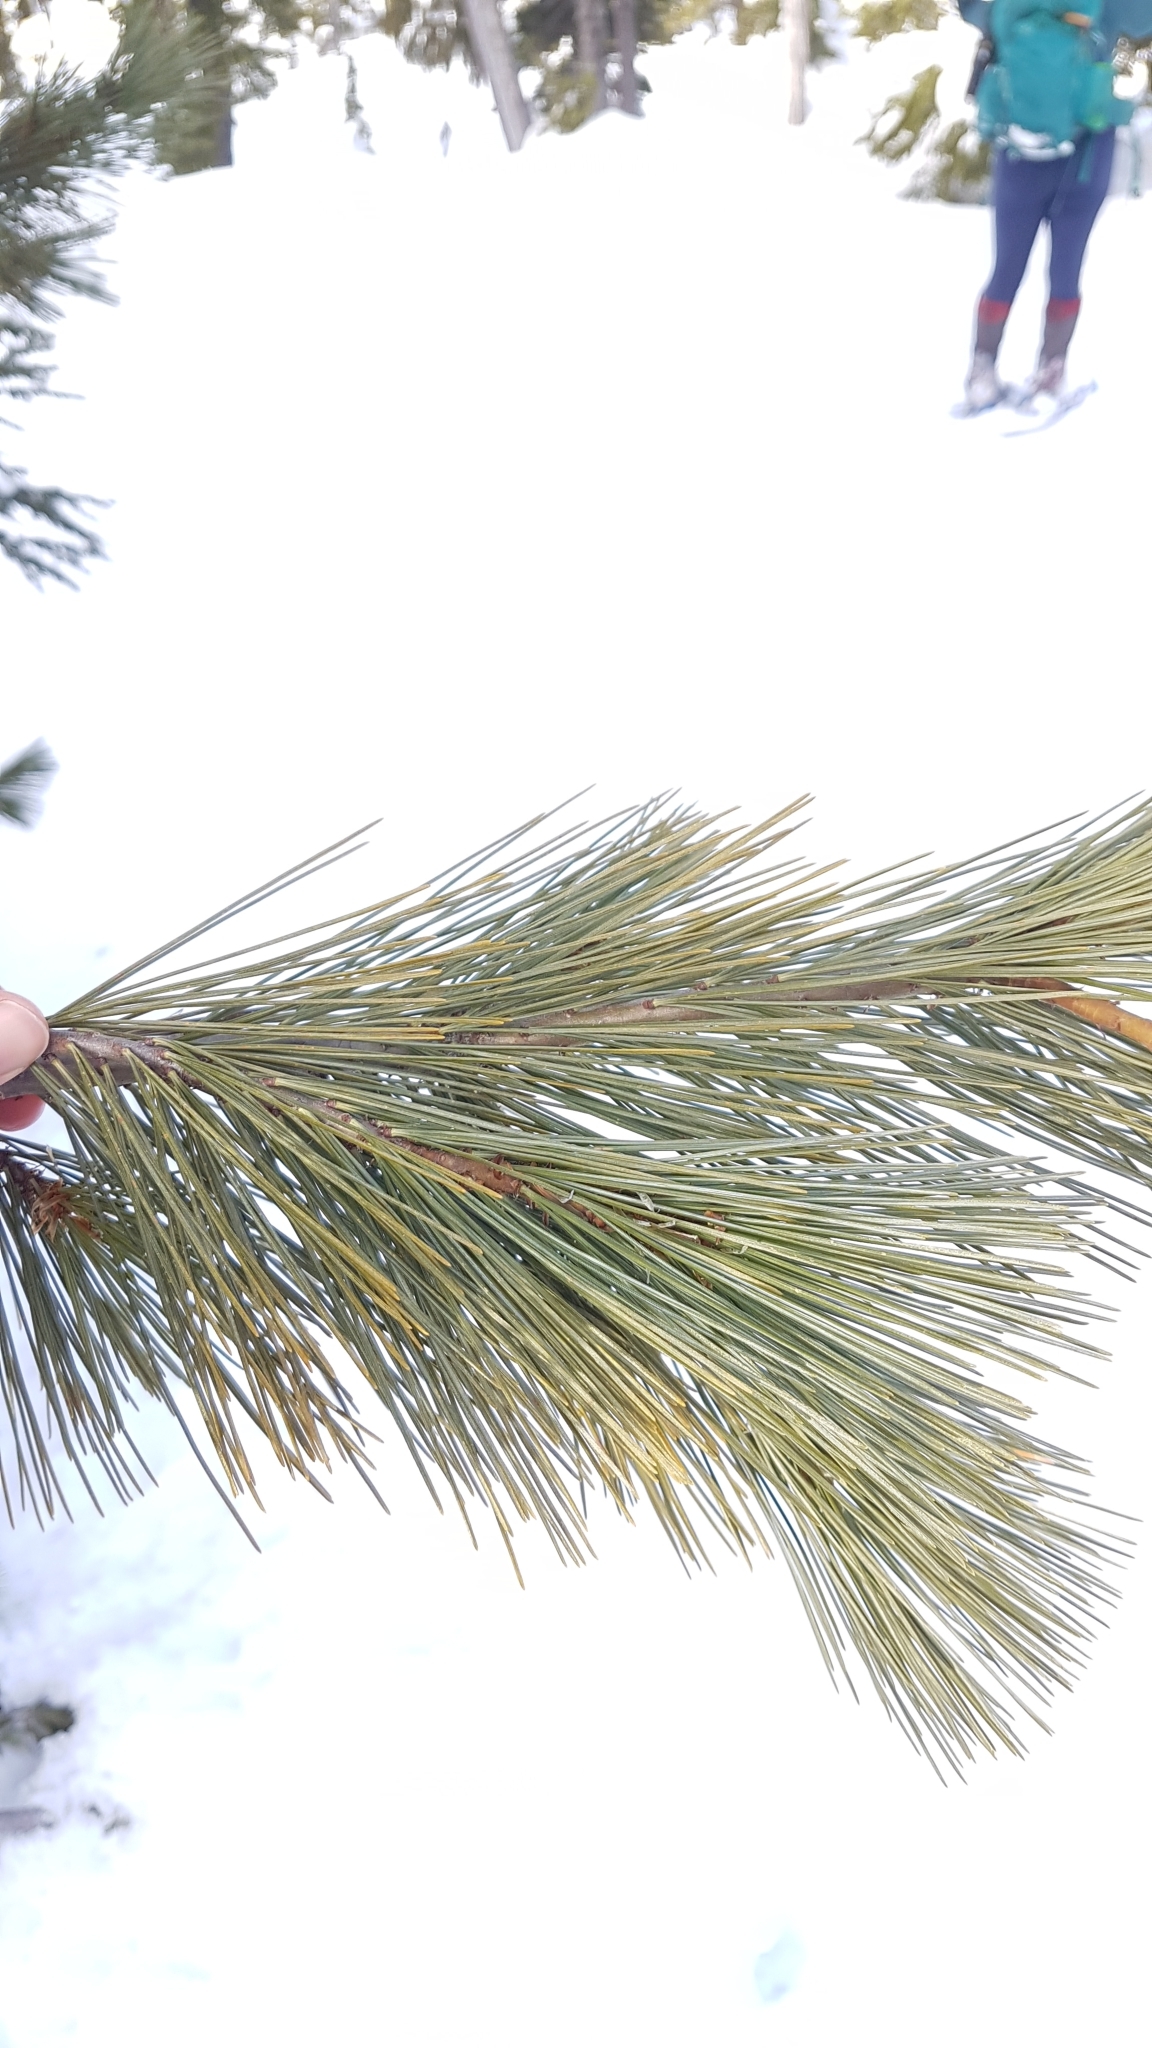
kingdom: Plantae
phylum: Tracheophyta
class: Pinopsida
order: Pinales
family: Pinaceae
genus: Pinus
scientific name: Pinus monticola
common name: Western white pine
